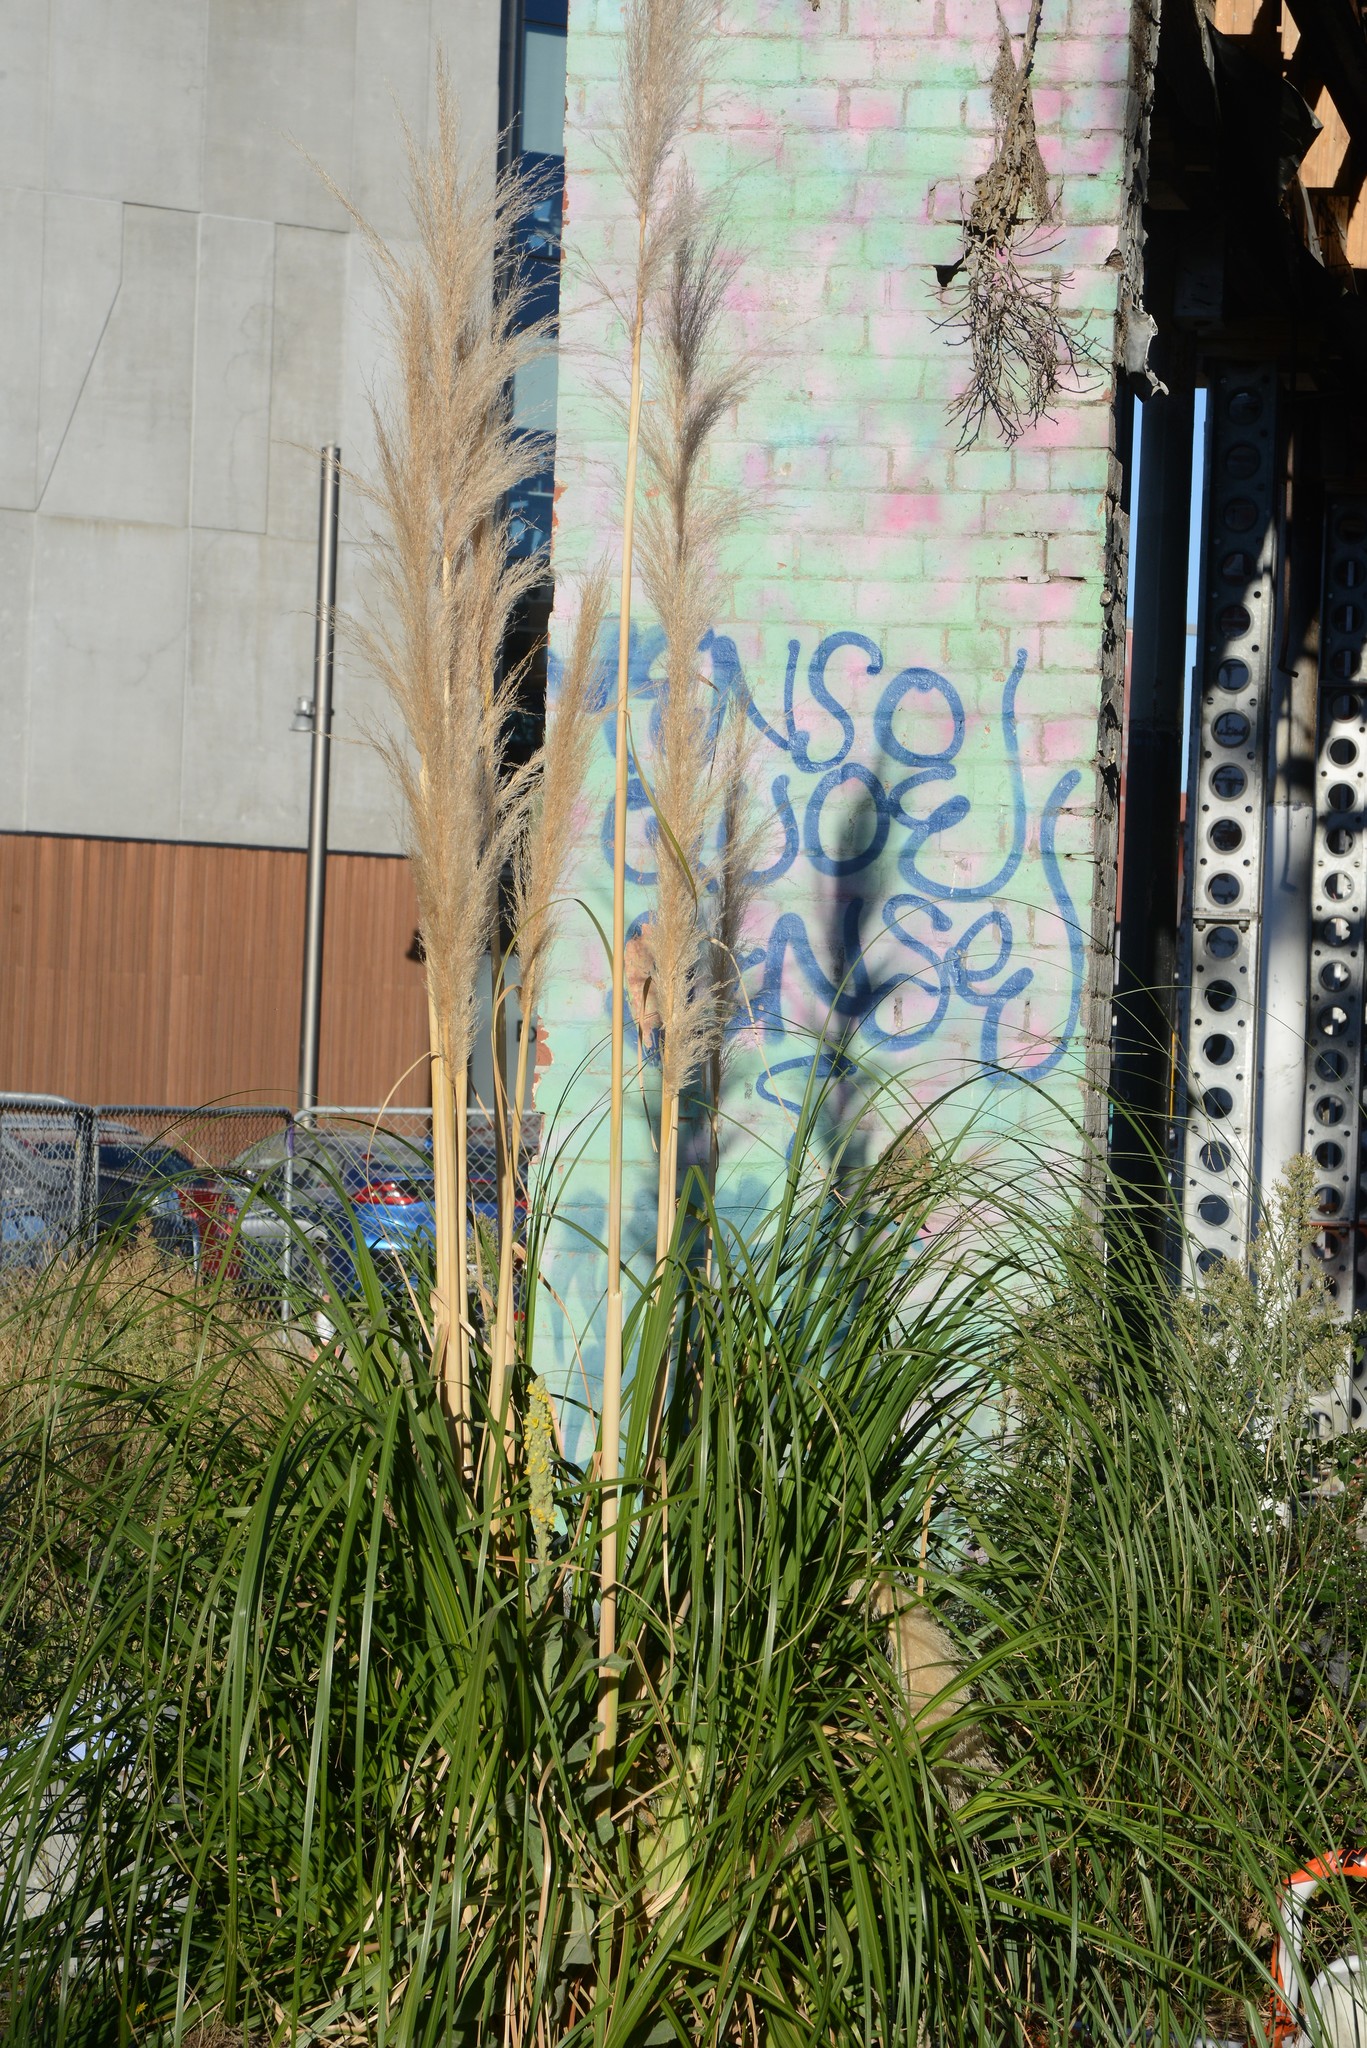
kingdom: Plantae
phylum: Tracheophyta
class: Liliopsida
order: Poales
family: Poaceae
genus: Cortaderia
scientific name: Cortaderia selloana
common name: Uruguayan pampas grass
